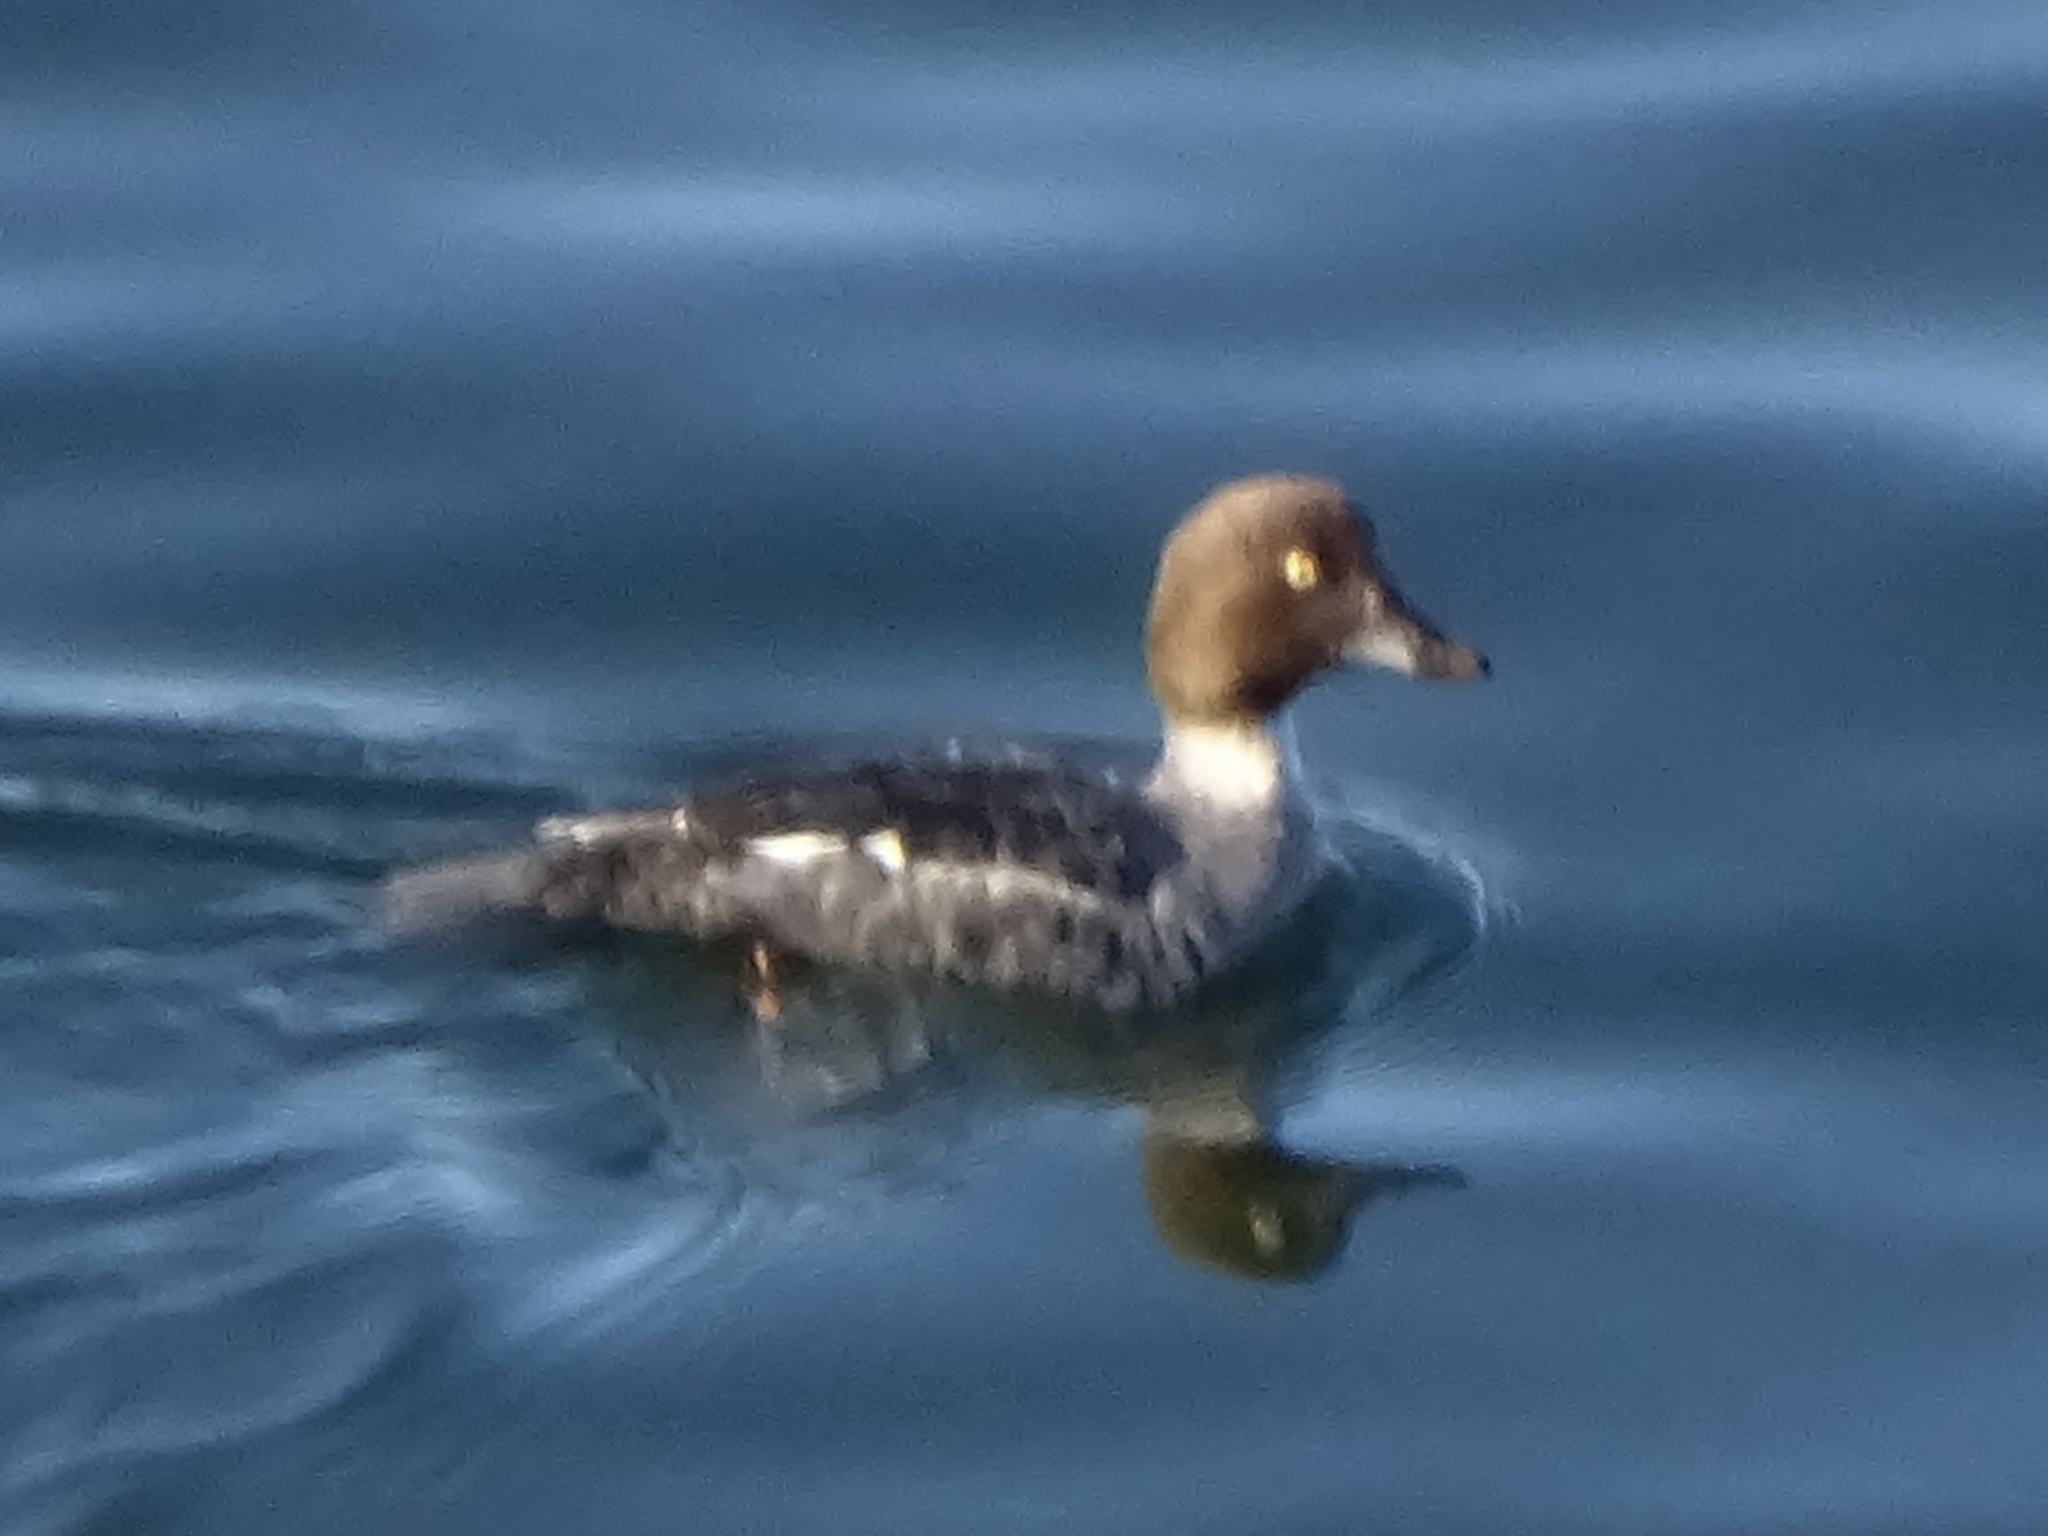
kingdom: Animalia
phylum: Chordata
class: Aves
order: Anseriformes
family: Anatidae
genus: Bucephala
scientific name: Bucephala clangula
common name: Common goldeneye
